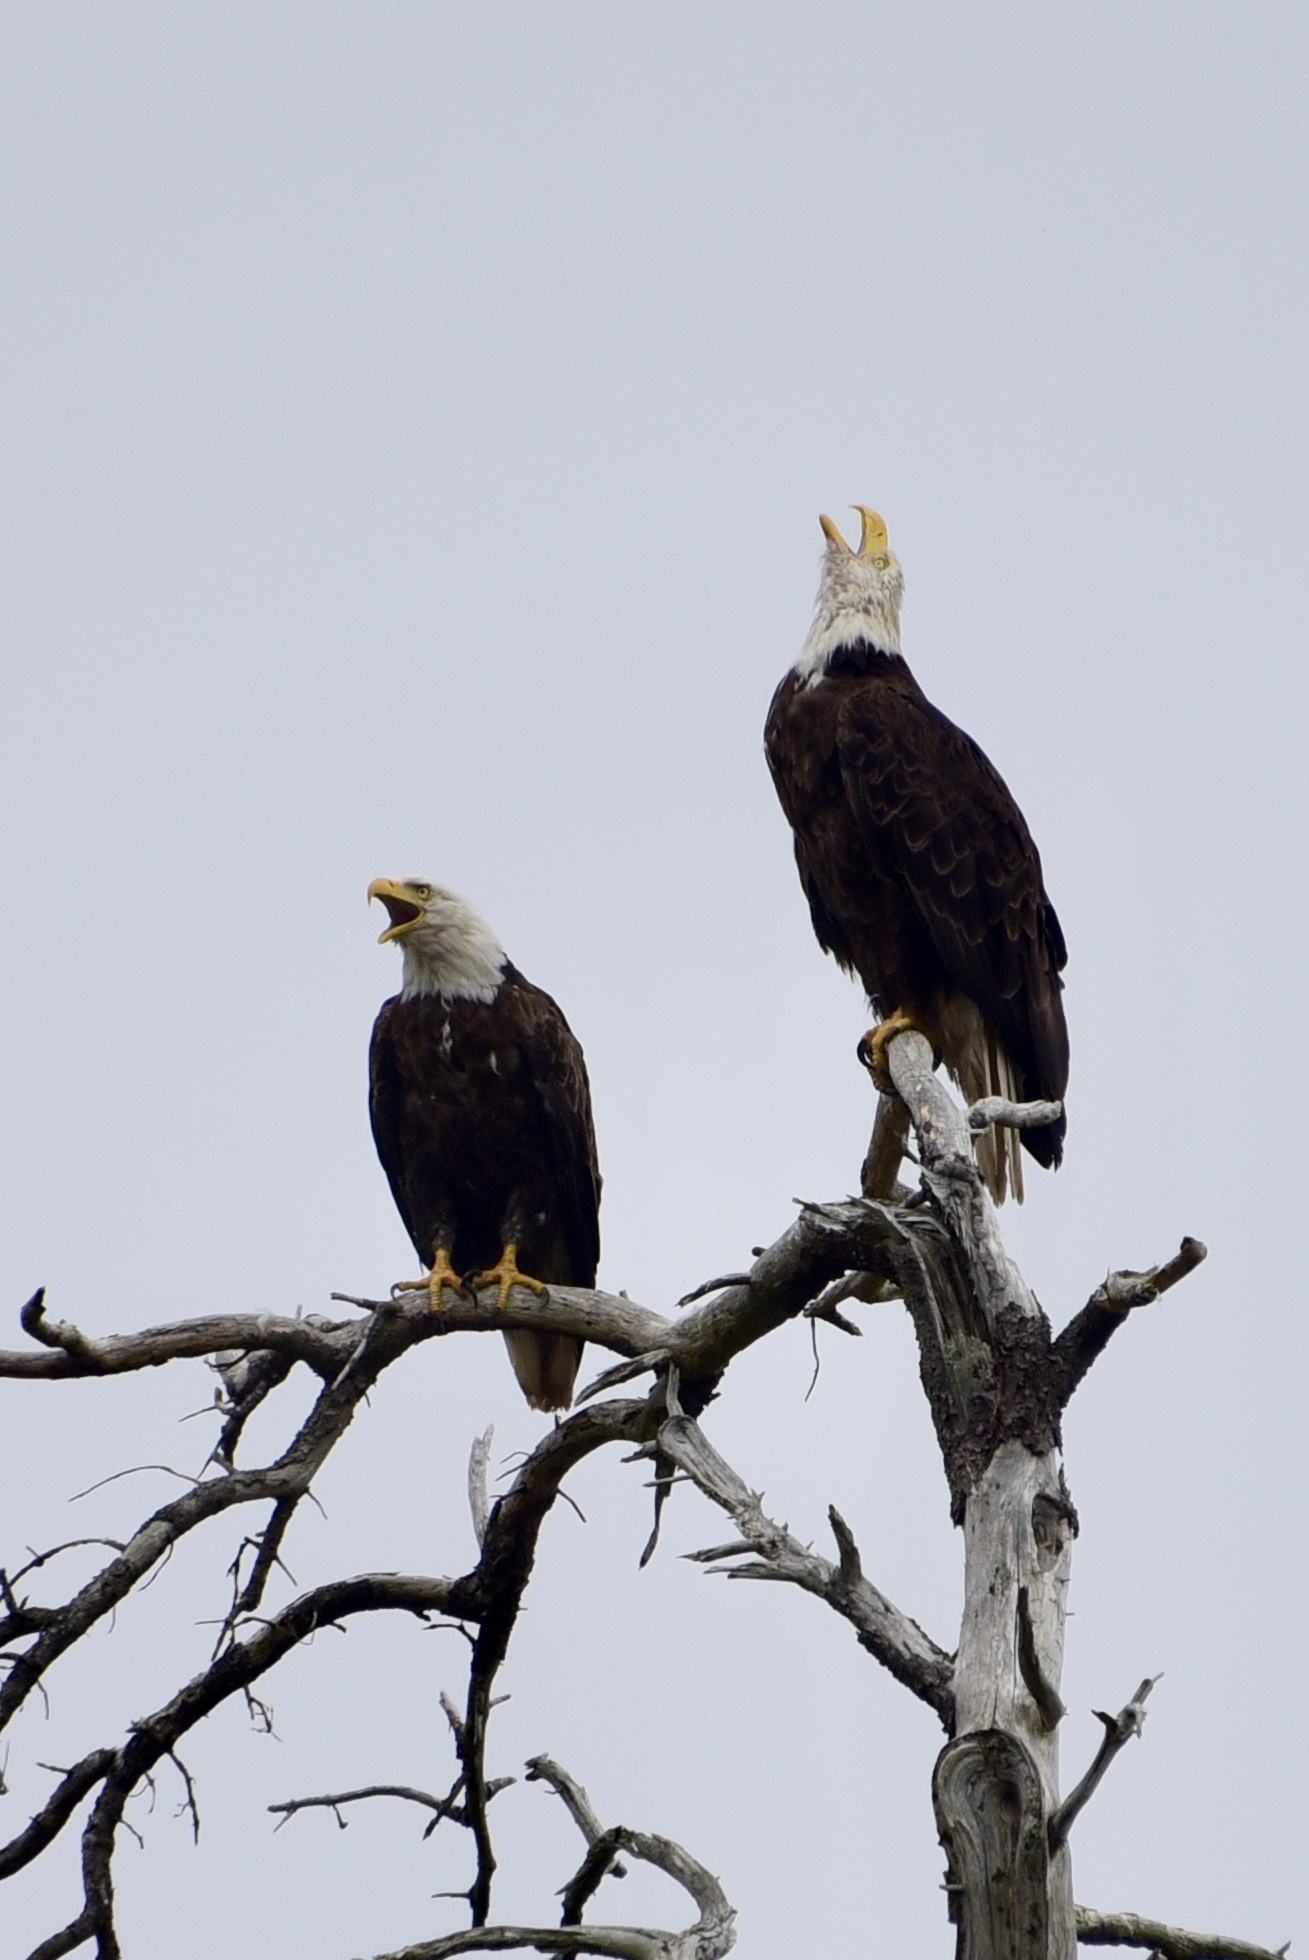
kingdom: Animalia
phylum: Chordata
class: Aves
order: Accipitriformes
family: Accipitridae
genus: Haliaeetus
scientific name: Haliaeetus leucocephalus
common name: Bald eagle
